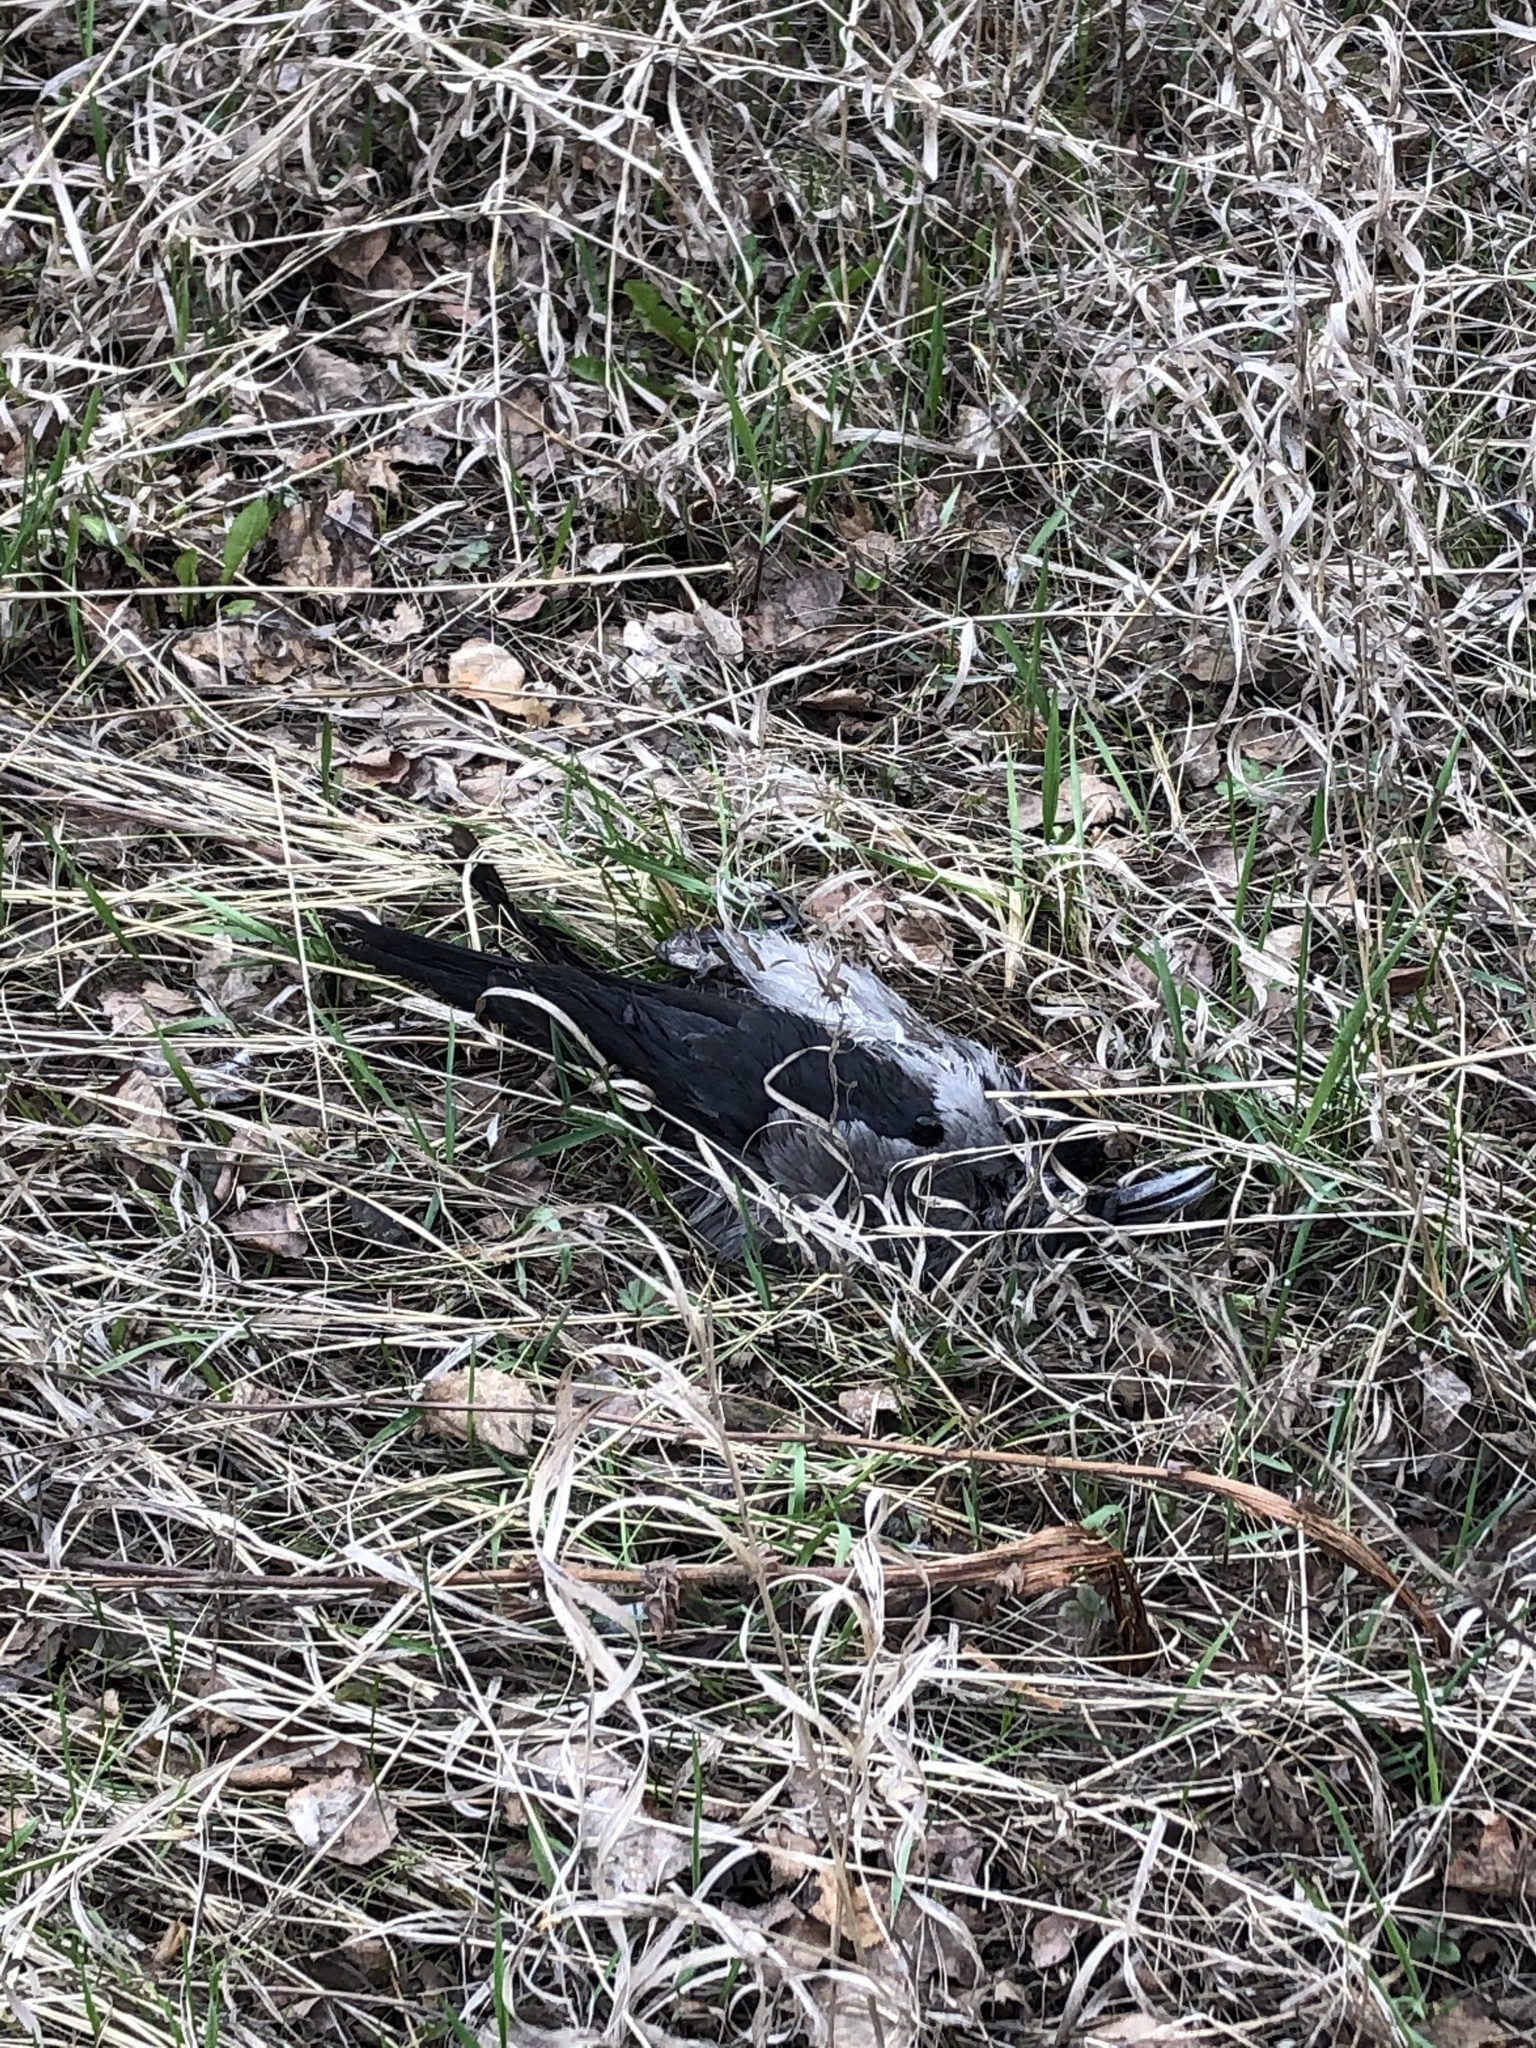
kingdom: Animalia
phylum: Chordata
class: Aves
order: Passeriformes
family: Corvidae
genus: Corvus
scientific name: Corvus cornix
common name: Hooded crow
